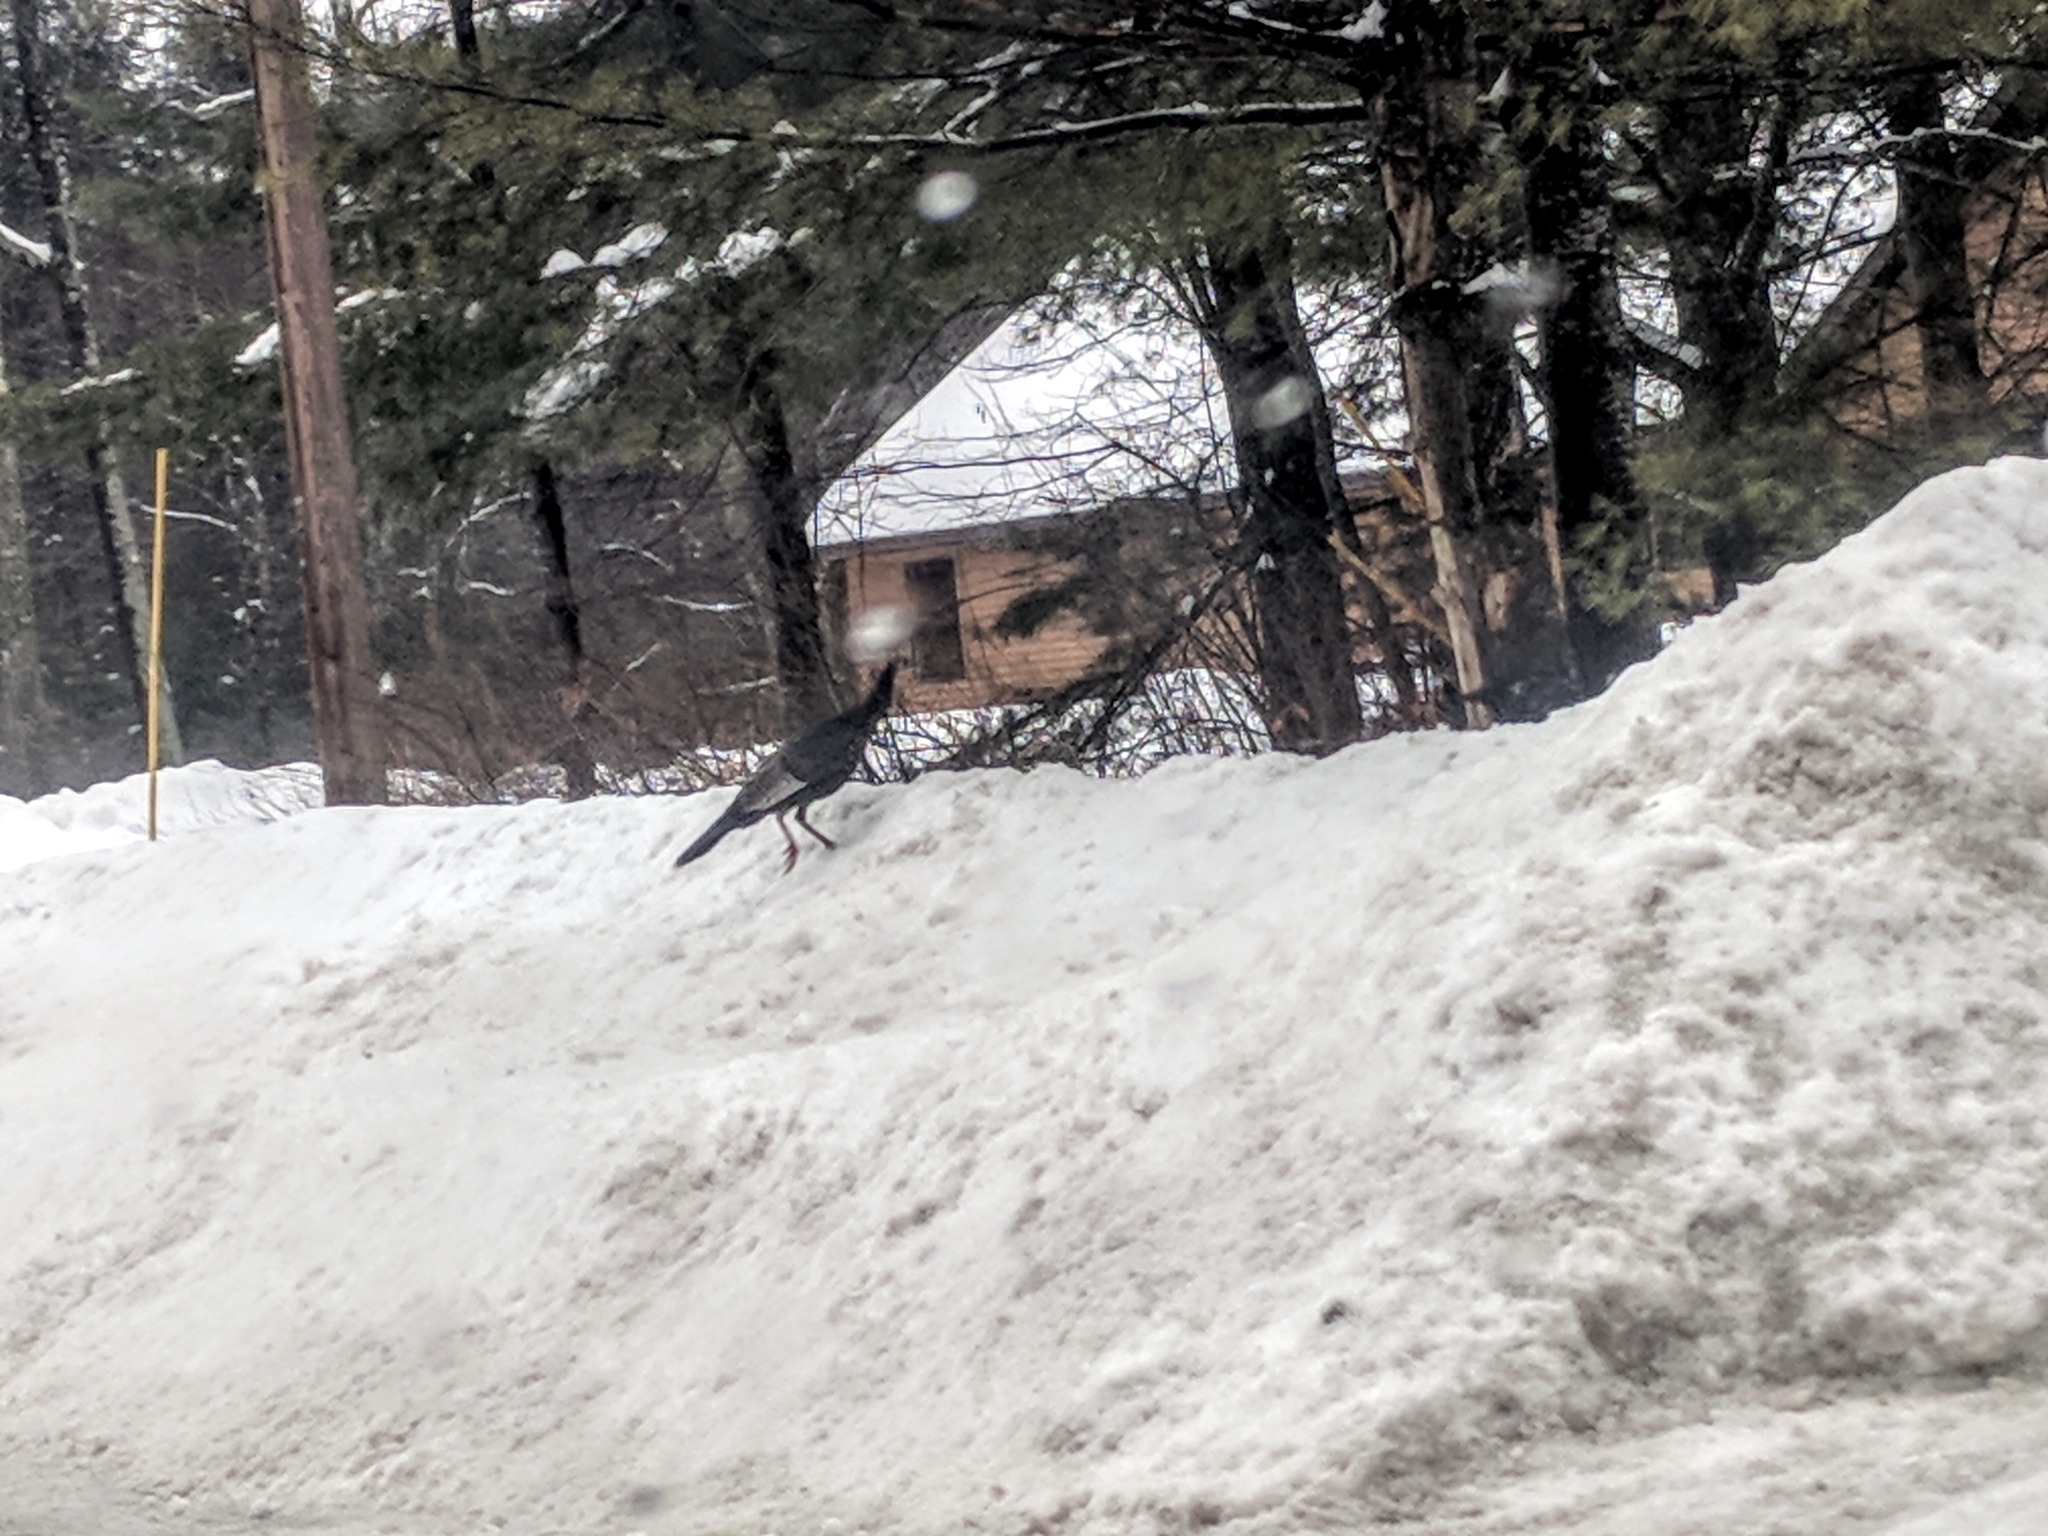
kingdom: Animalia
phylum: Chordata
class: Aves
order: Galliformes
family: Phasianidae
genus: Meleagris
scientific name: Meleagris gallopavo
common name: Wild turkey
